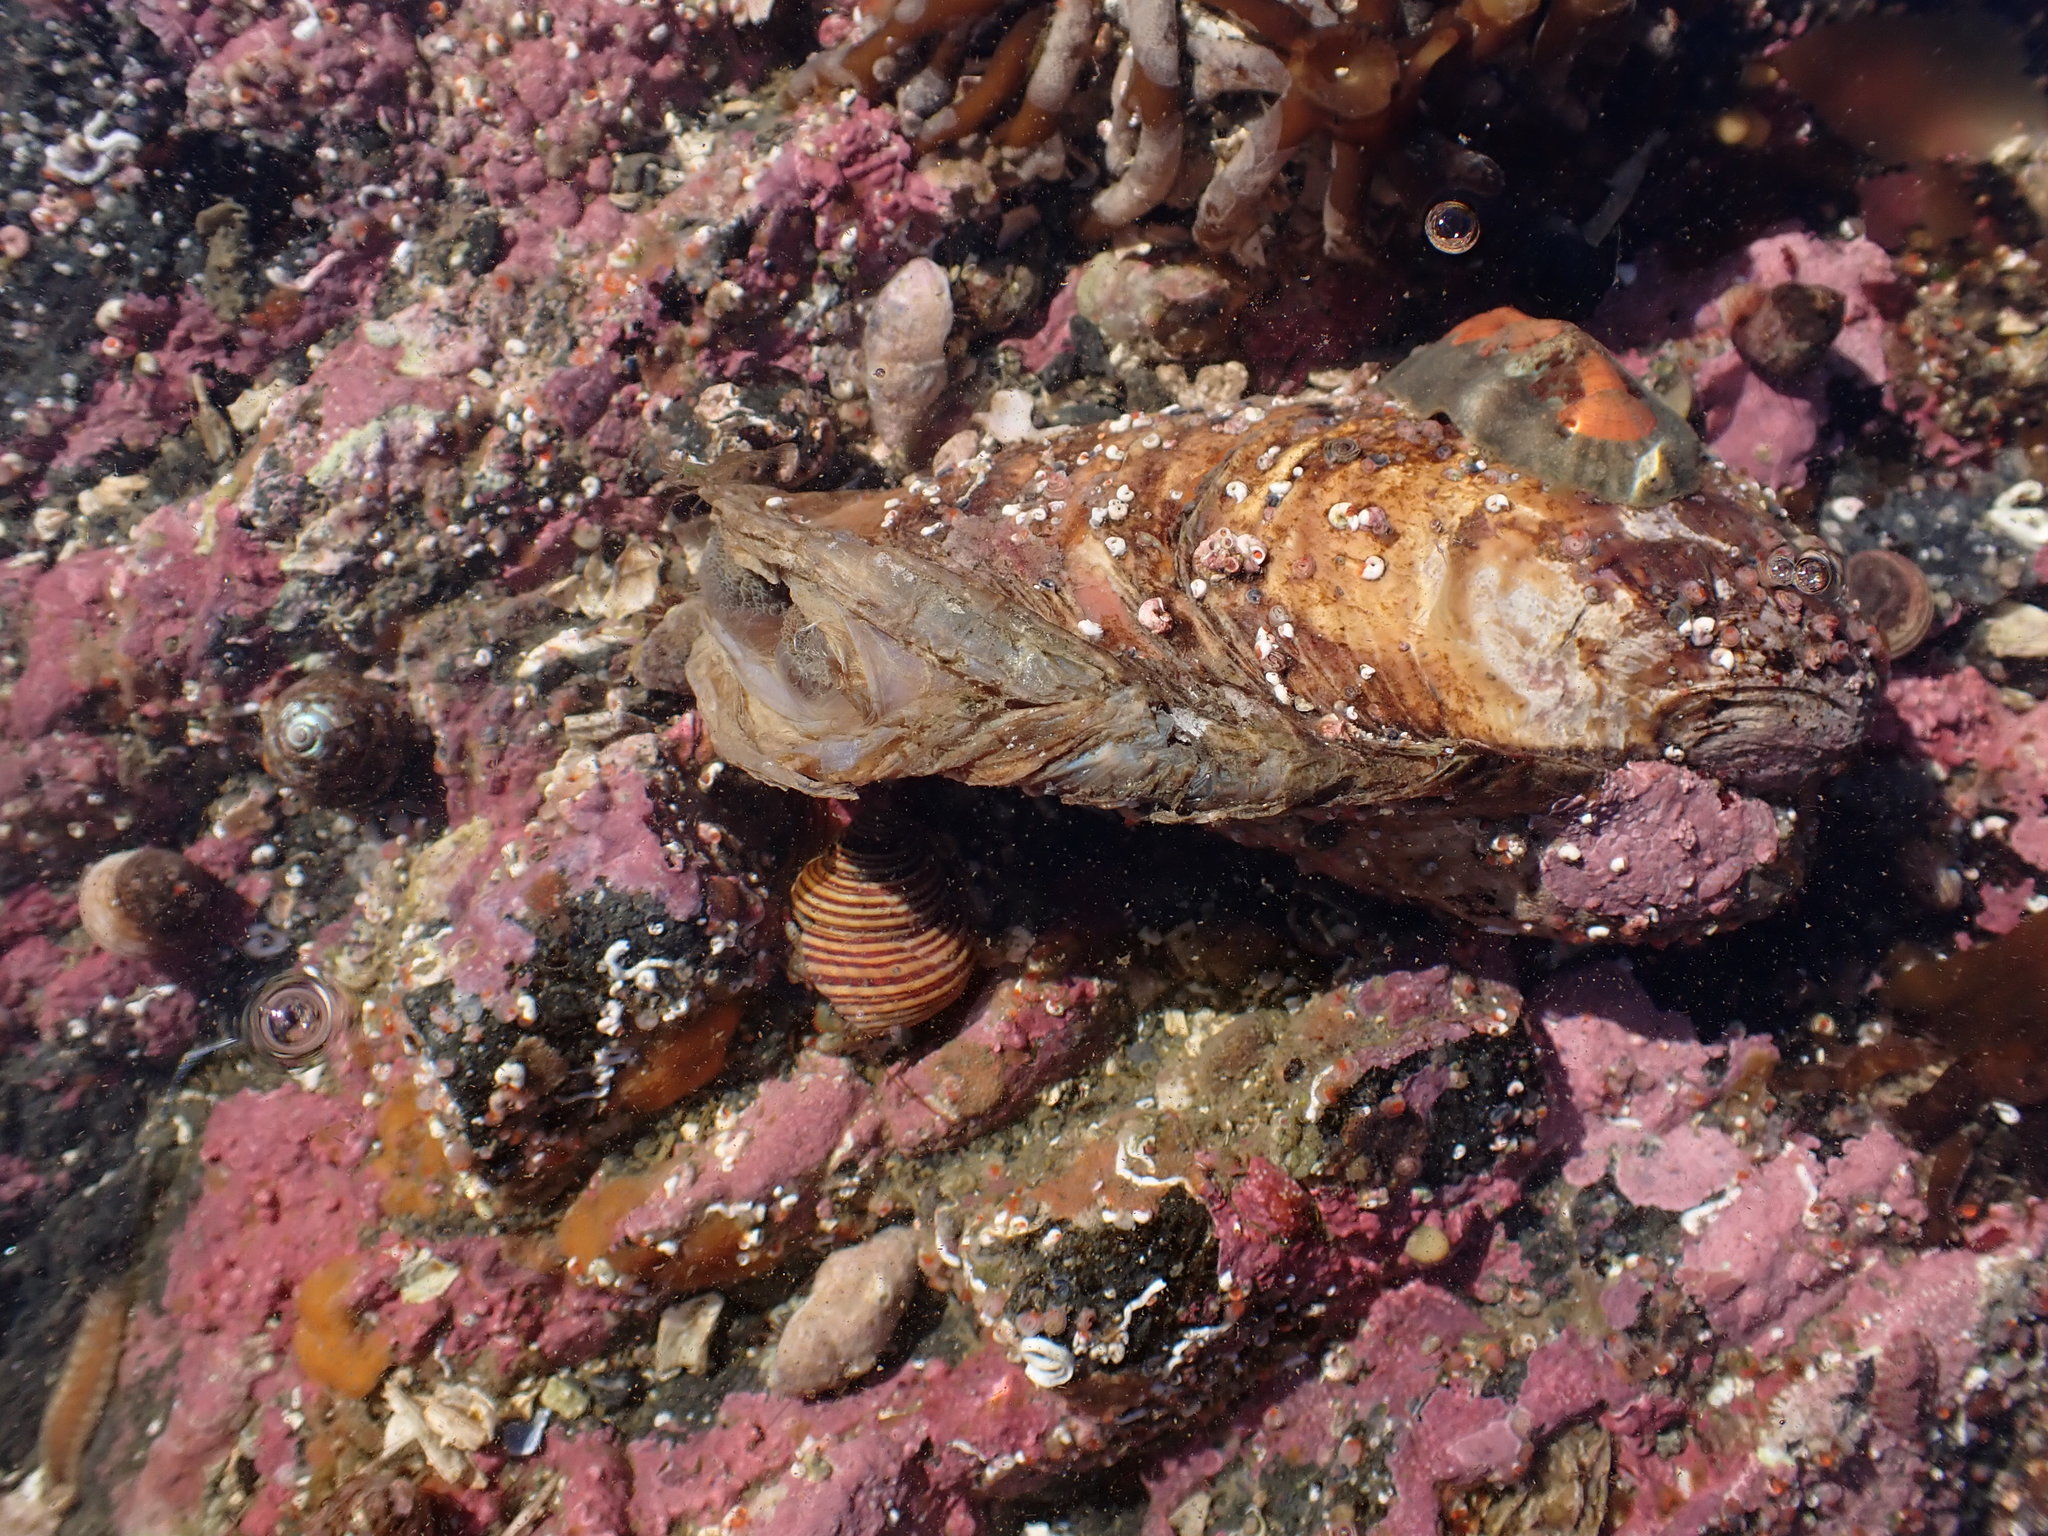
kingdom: Animalia
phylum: Mollusca
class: Bivalvia
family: Lyonsiidae
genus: Entodesma
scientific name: Entodesma navicula
